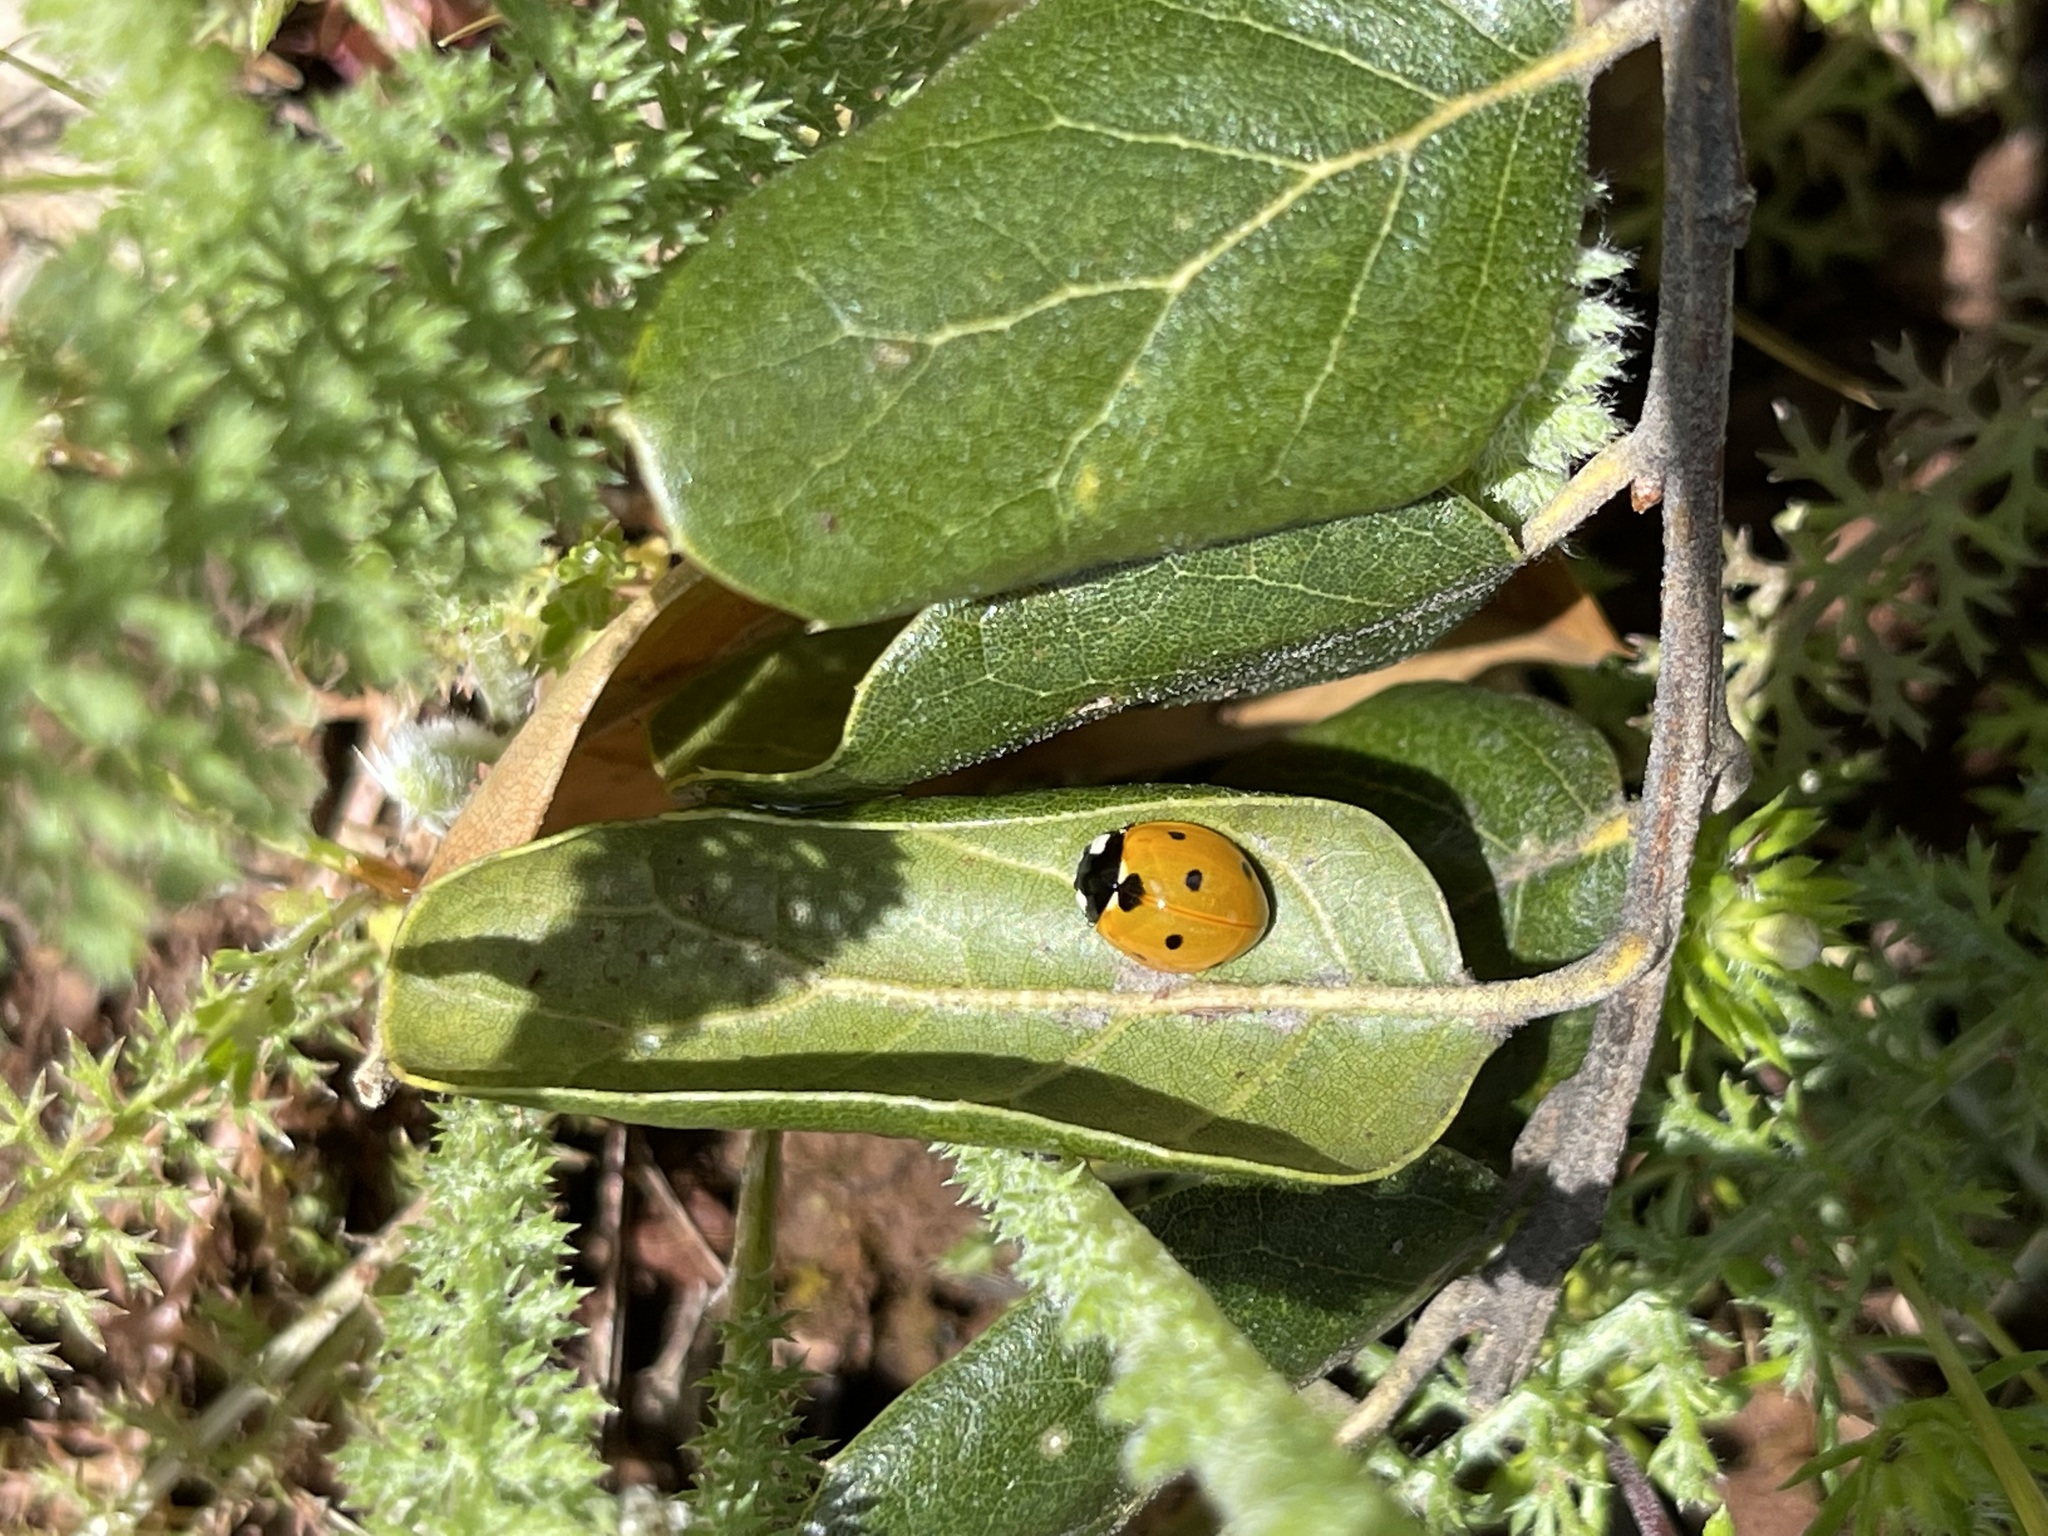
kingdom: Animalia
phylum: Arthropoda
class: Insecta
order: Coleoptera
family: Coccinellidae
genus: Coccinella
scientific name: Coccinella septempunctata
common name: Sevenspotted lady beetle
